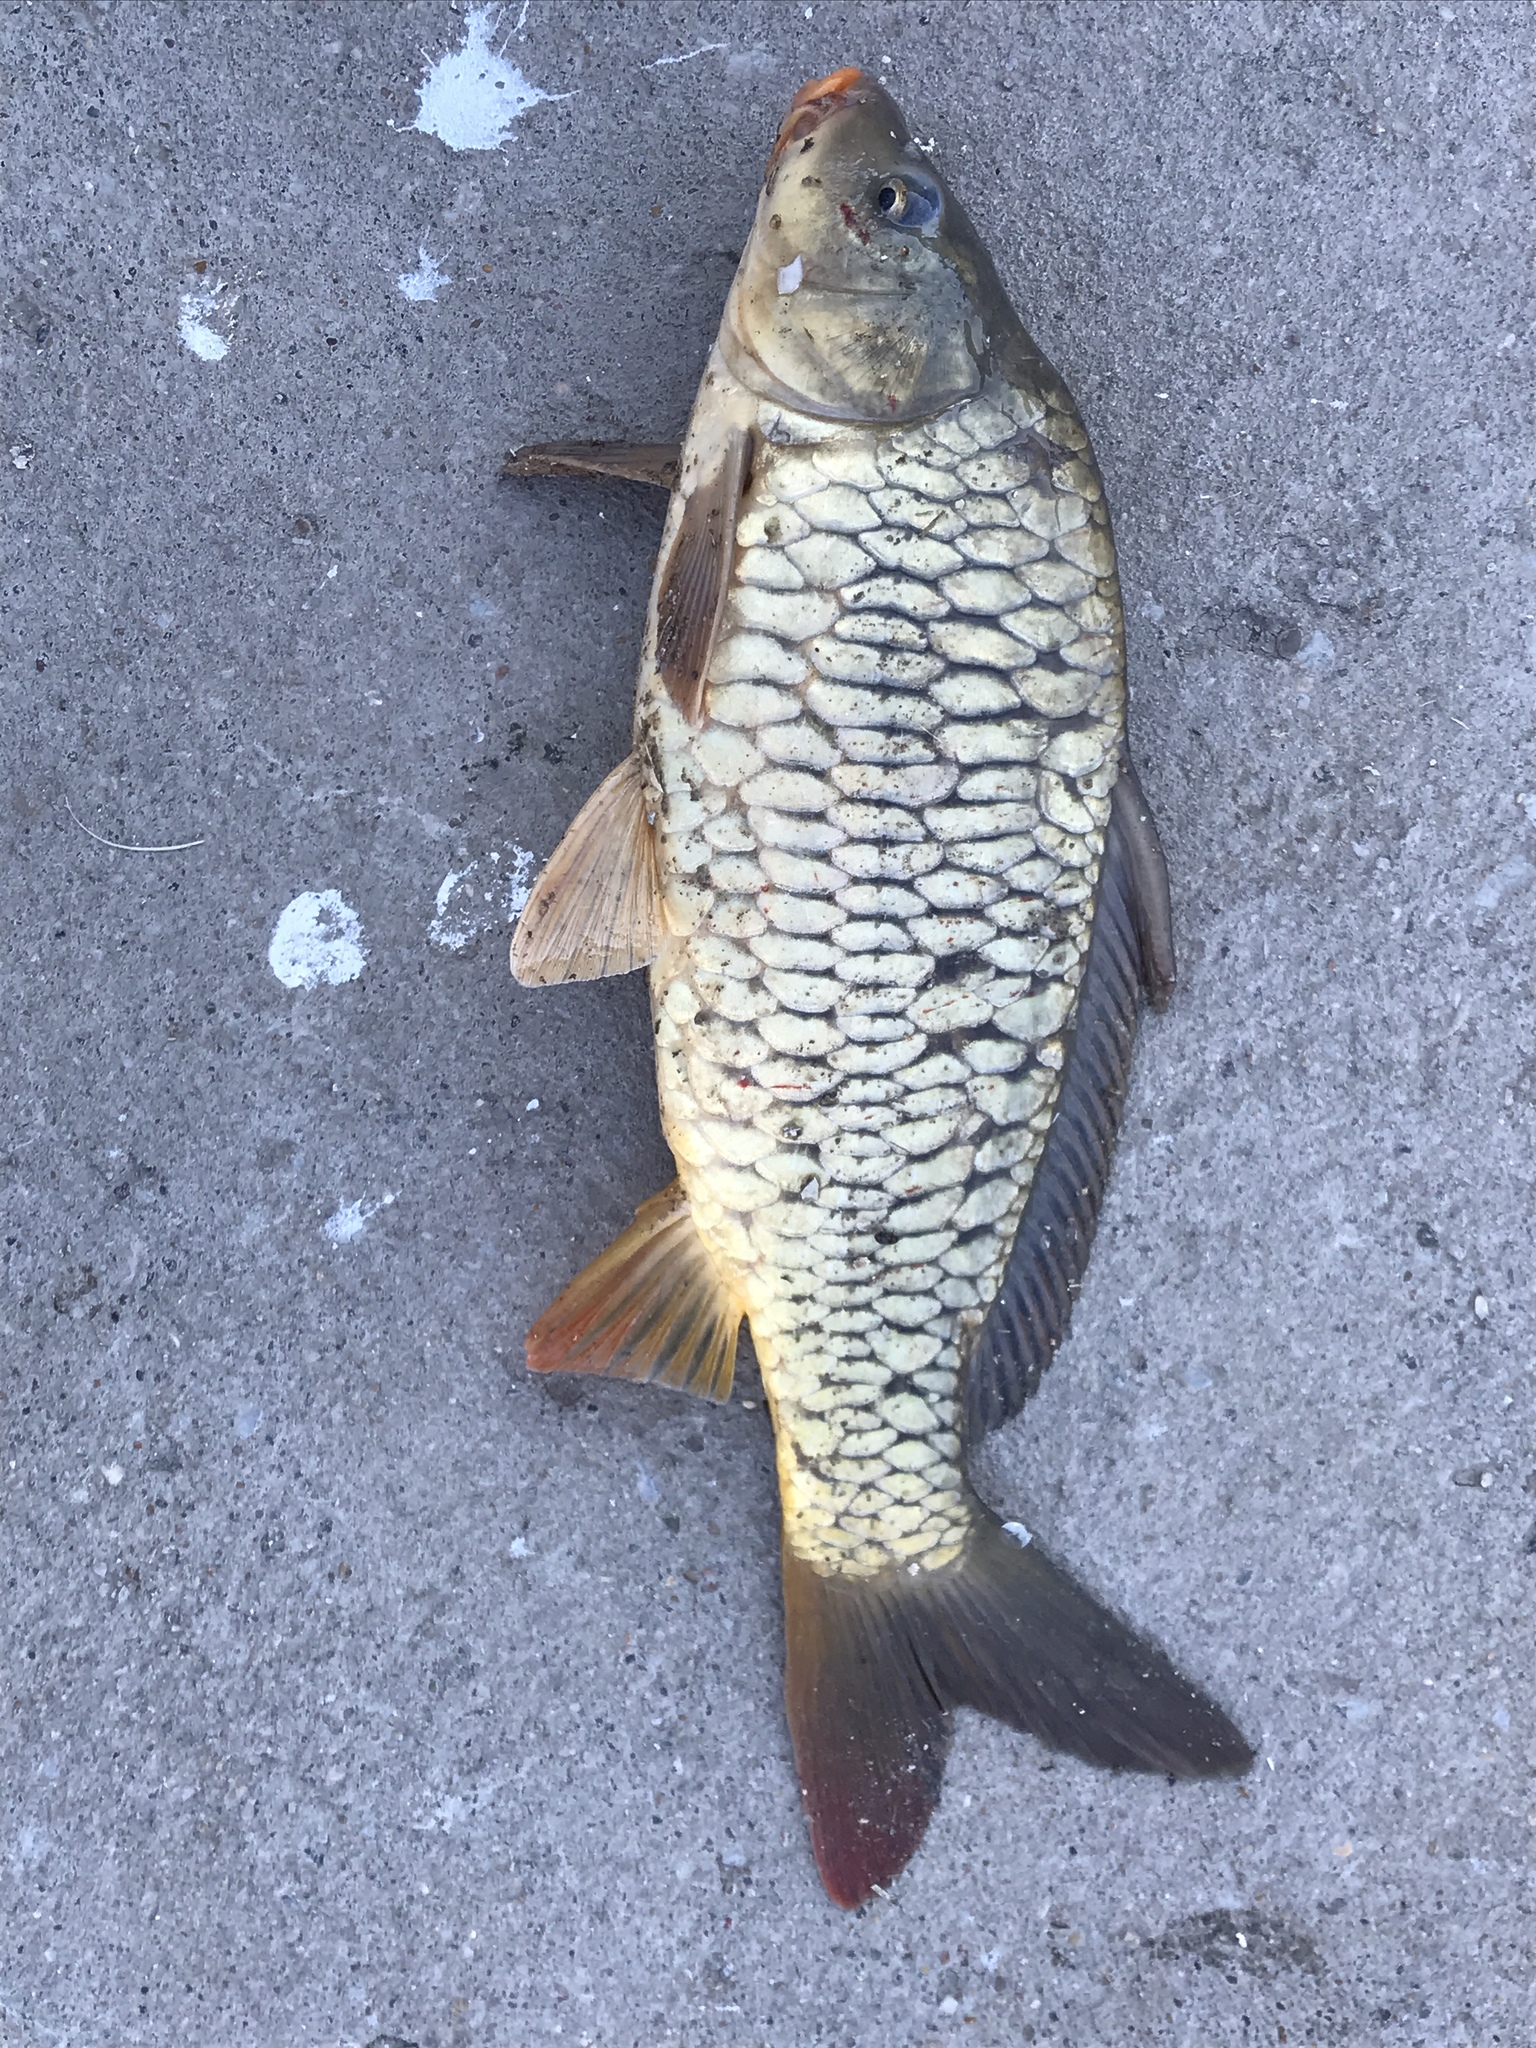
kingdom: Animalia
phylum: Chordata
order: Cypriniformes
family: Cyprinidae
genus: Cyprinus
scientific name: Cyprinus carpio
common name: Common carp
